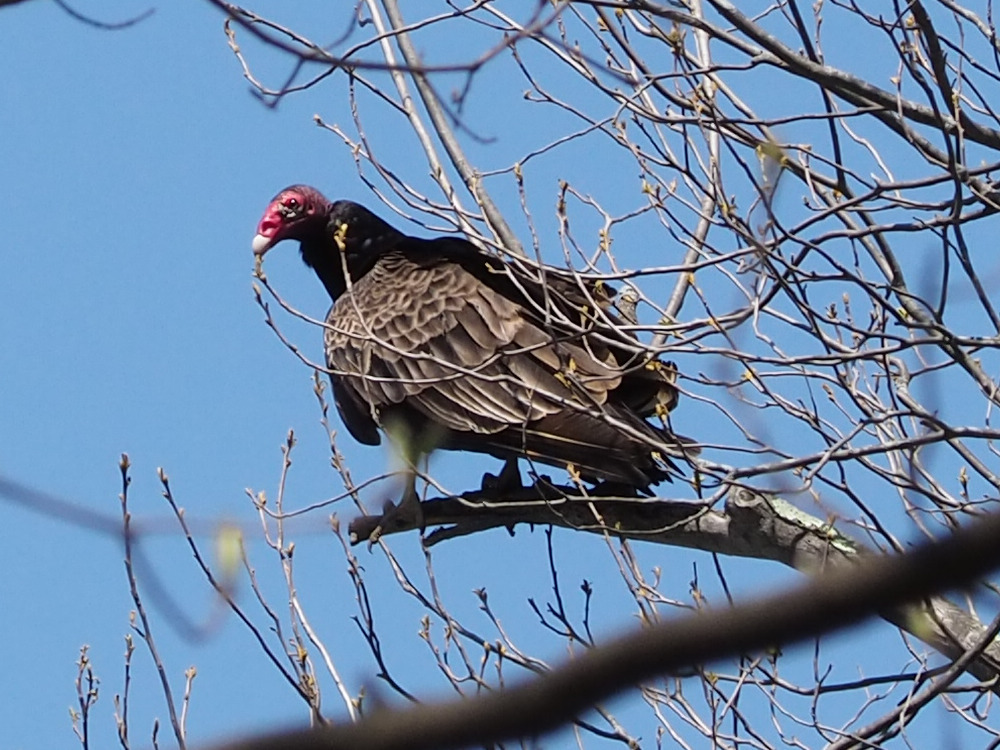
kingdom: Animalia
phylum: Chordata
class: Aves
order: Accipitriformes
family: Cathartidae
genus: Cathartes
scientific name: Cathartes aura
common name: Turkey vulture
